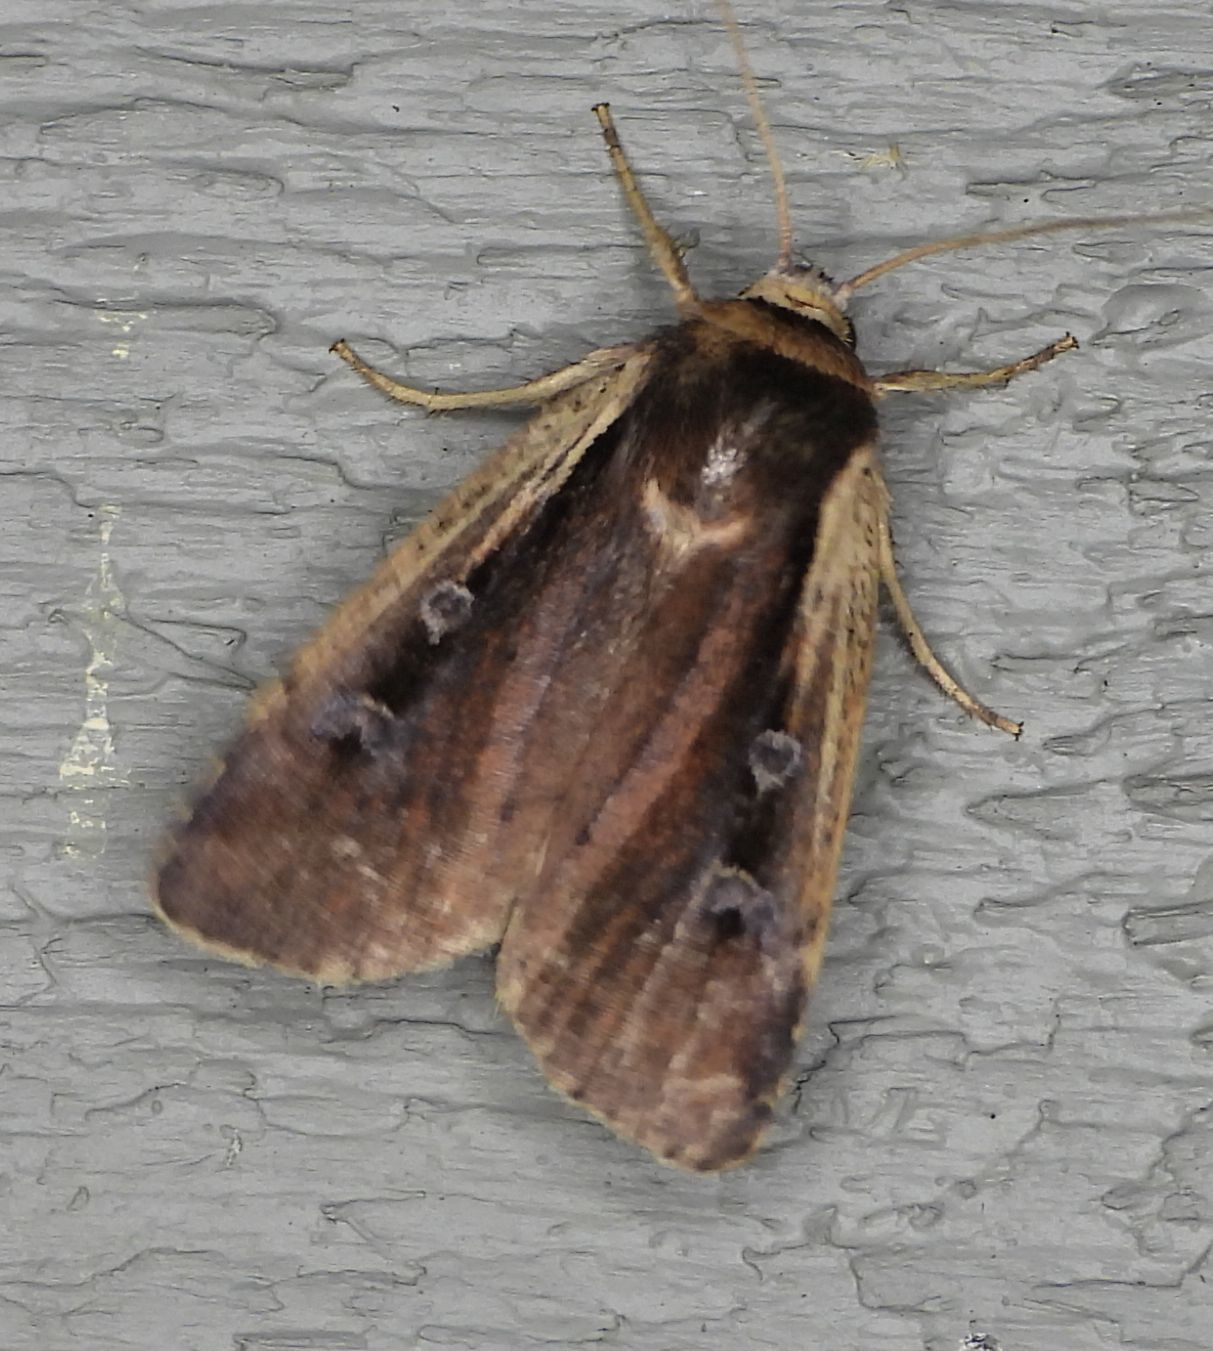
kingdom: Animalia
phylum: Arthropoda
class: Insecta
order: Lepidoptera
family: Noctuidae
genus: Ochropleura
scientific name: Ochropleura implecta
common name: Flame-shouldered dart
